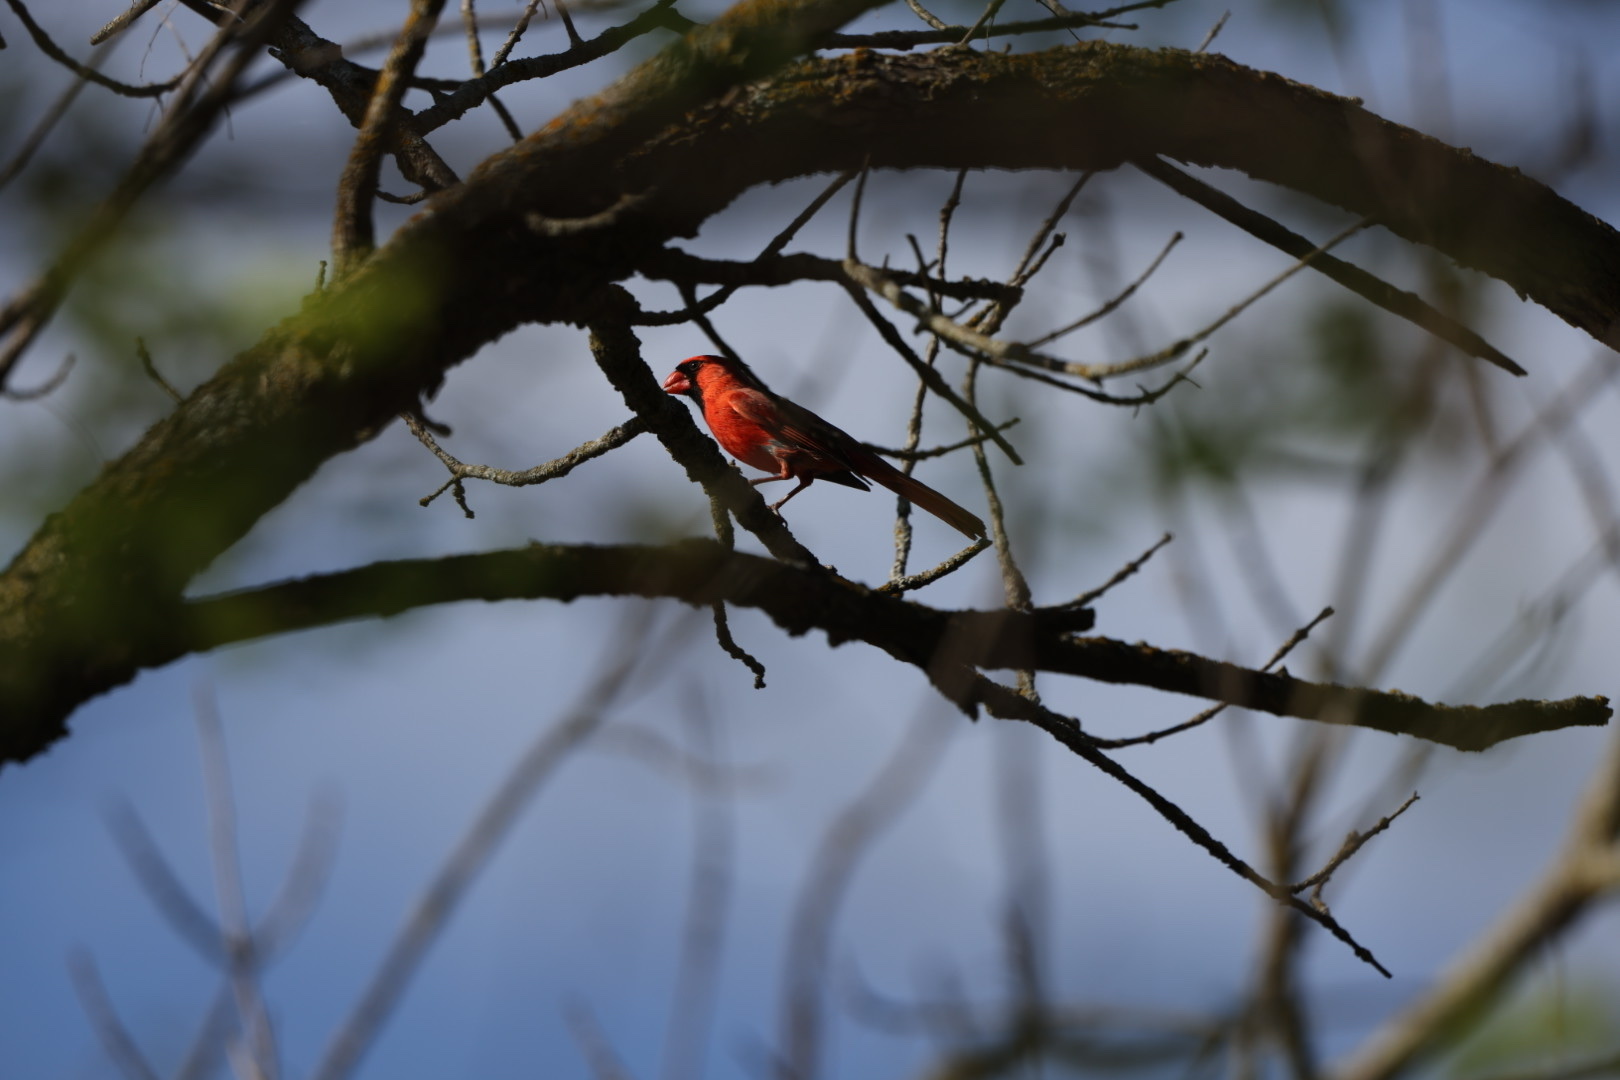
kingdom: Animalia
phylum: Chordata
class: Aves
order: Passeriformes
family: Cardinalidae
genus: Cardinalis
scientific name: Cardinalis cardinalis
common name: Northern cardinal
